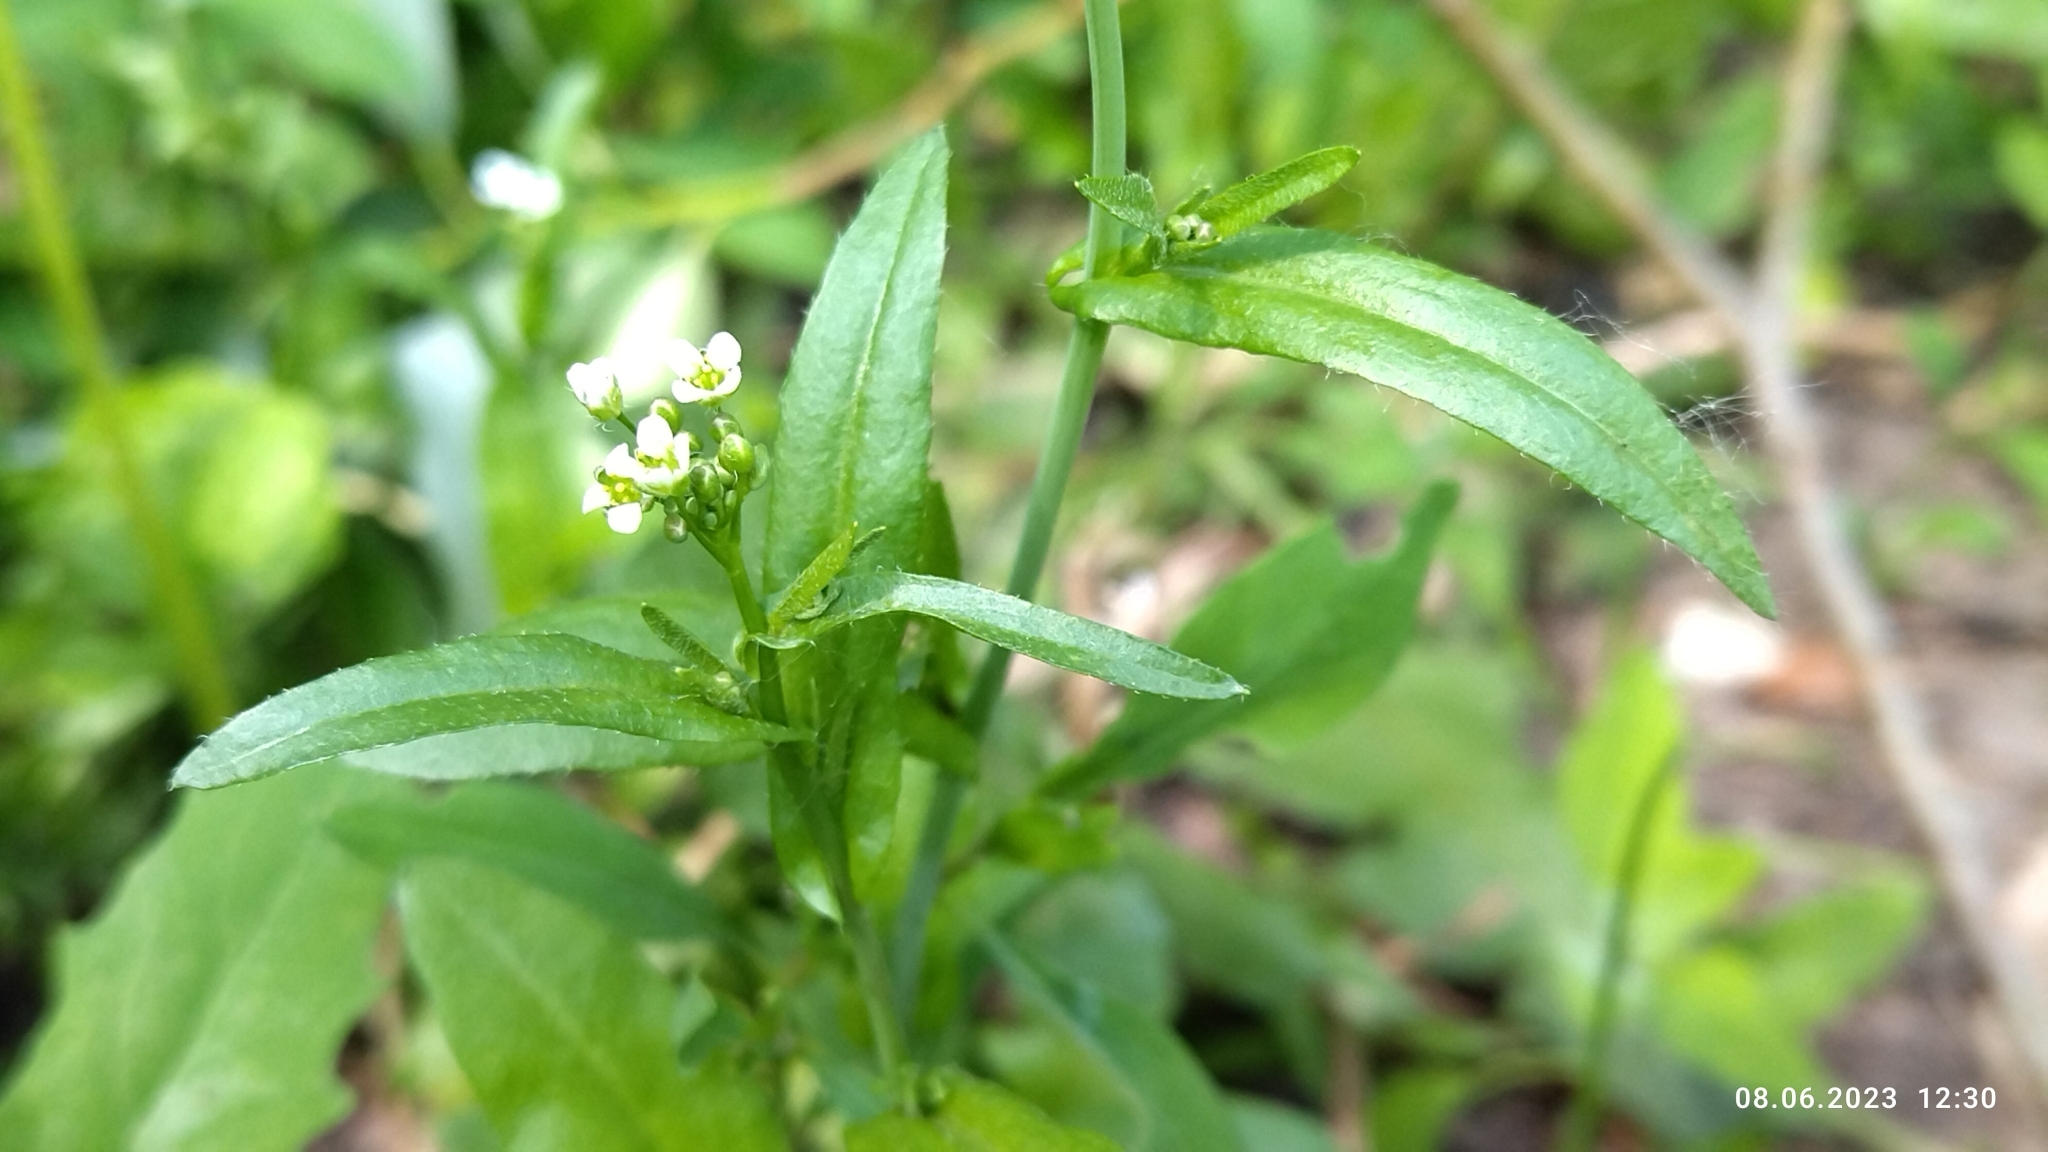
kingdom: Plantae
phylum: Tracheophyta
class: Magnoliopsida
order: Brassicales
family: Brassicaceae
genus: Capsella
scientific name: Capsella bursa-pastoris
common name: Shepherd's purse
